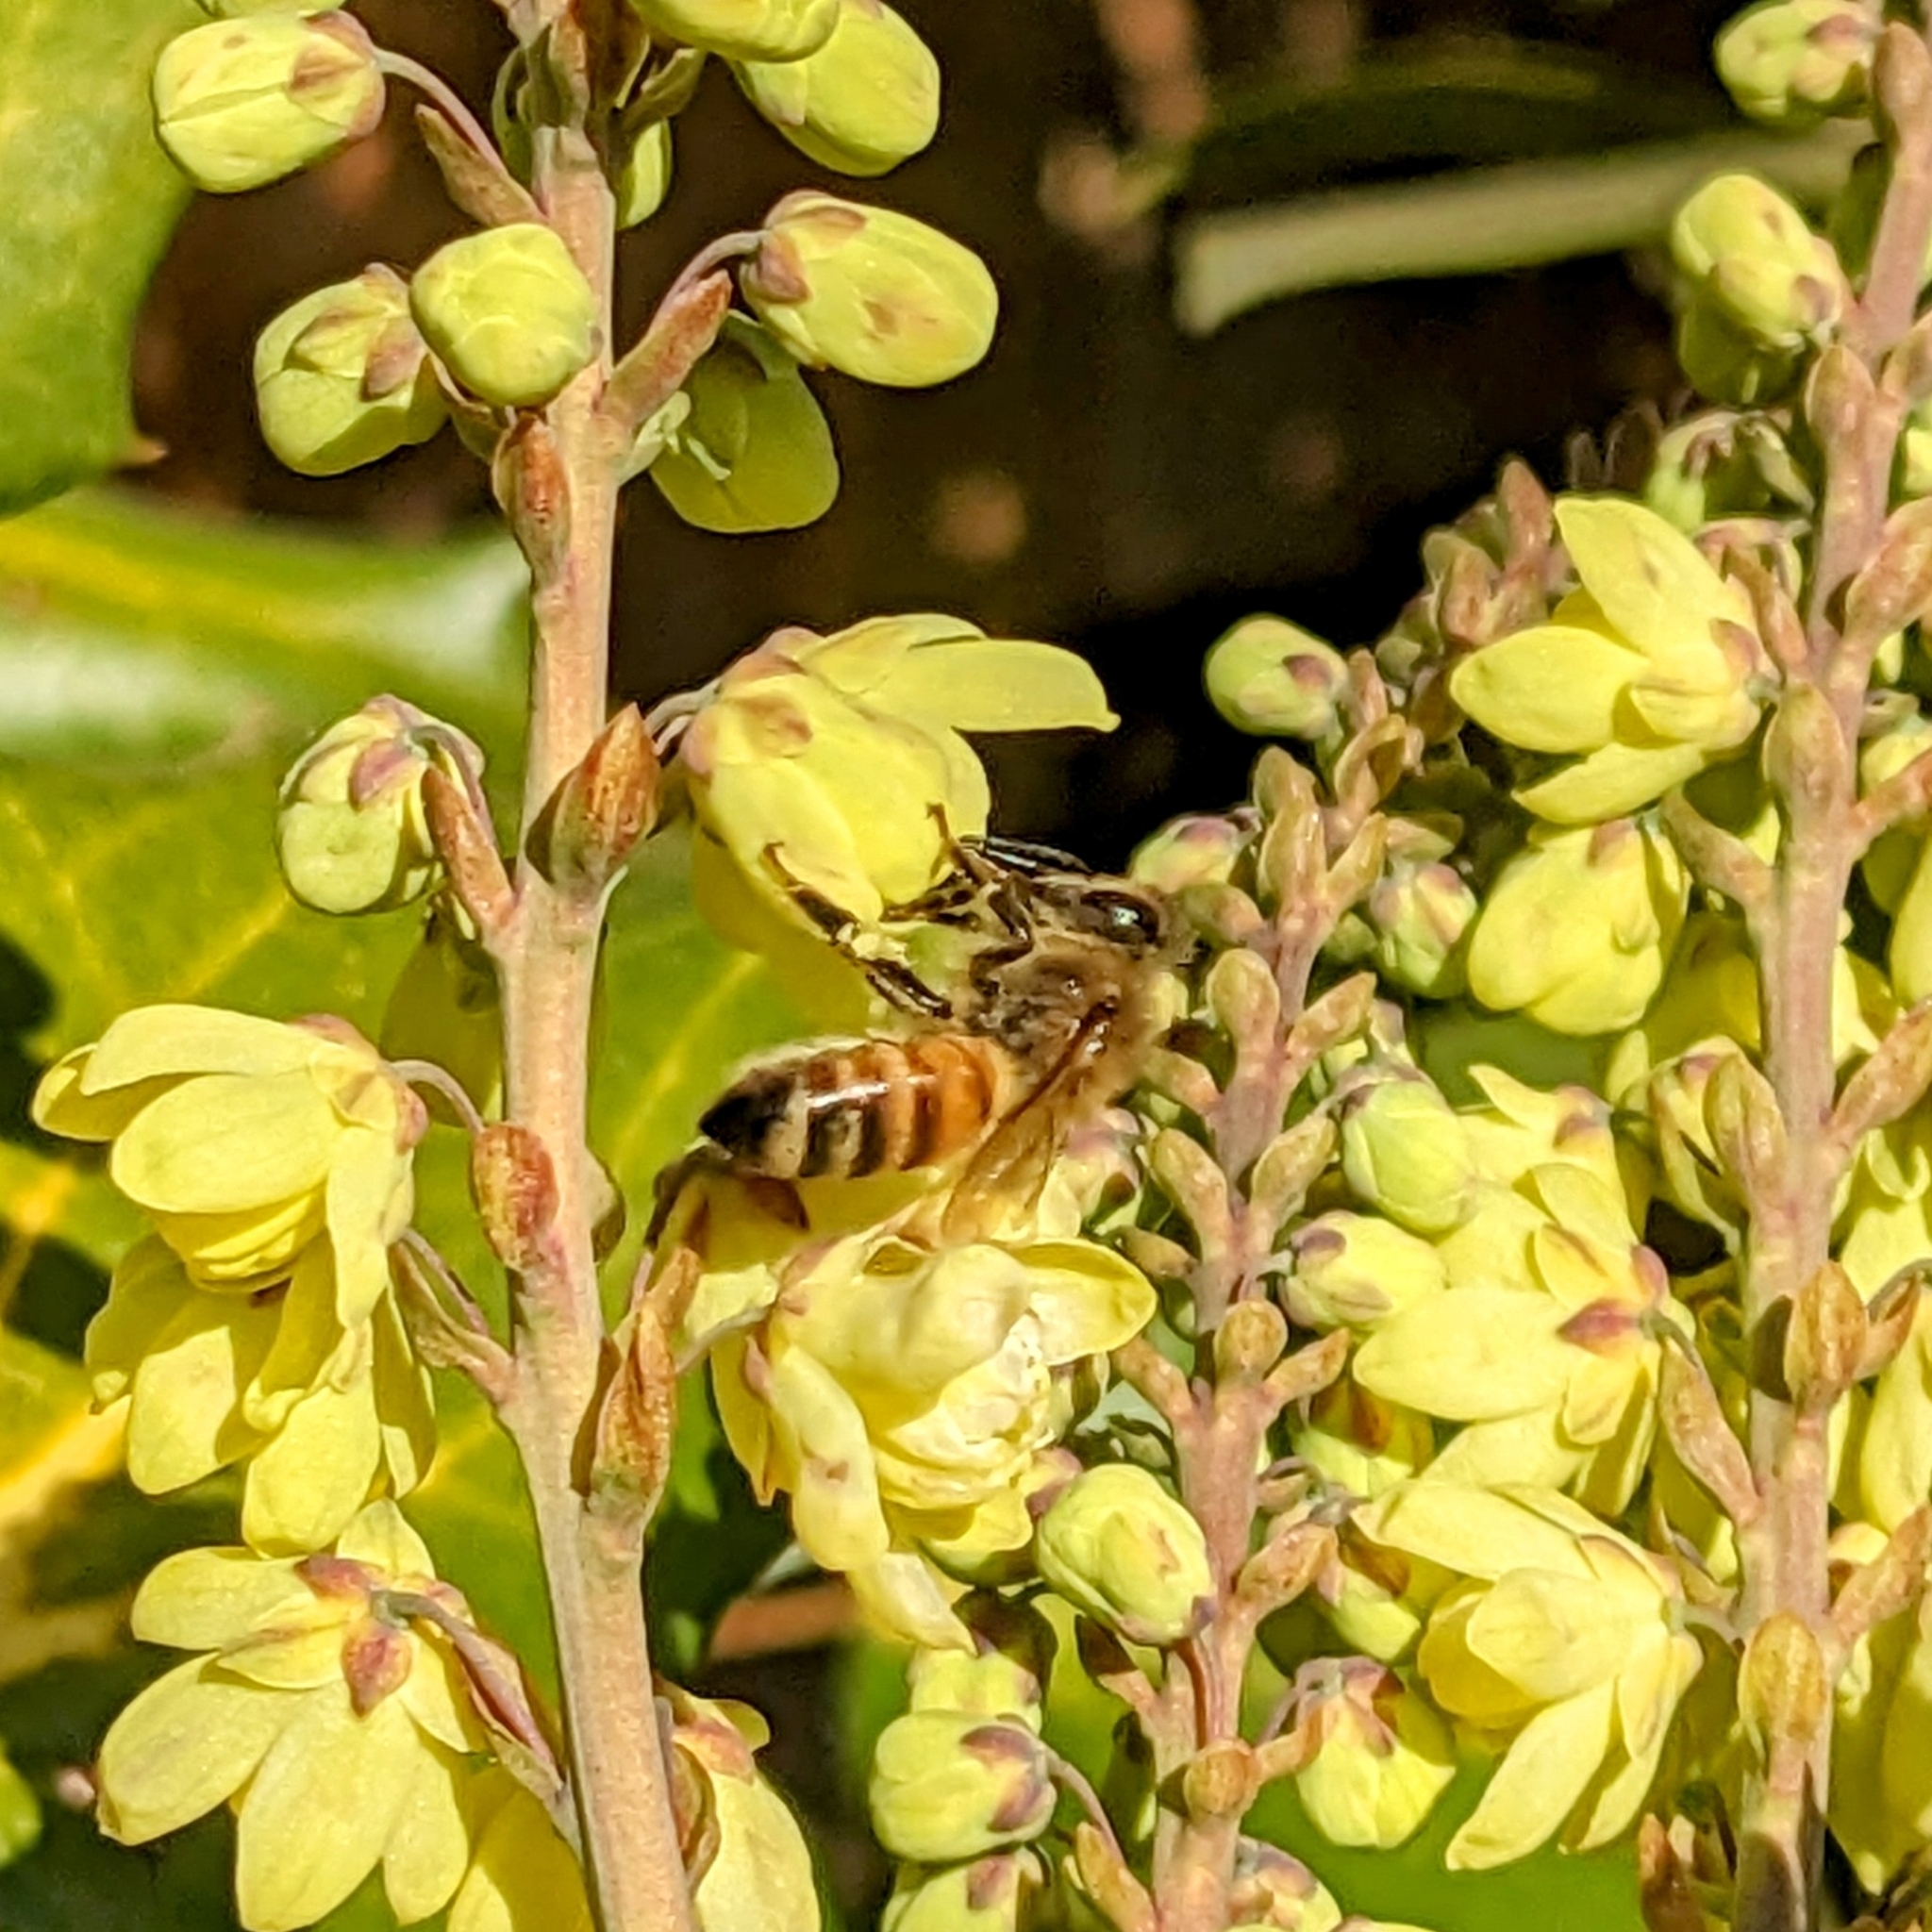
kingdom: Animalia
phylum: Arthropoda
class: Insecta
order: Hymenoptera
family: Apidae
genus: Apis
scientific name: Apis mellifera
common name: Honey bee
